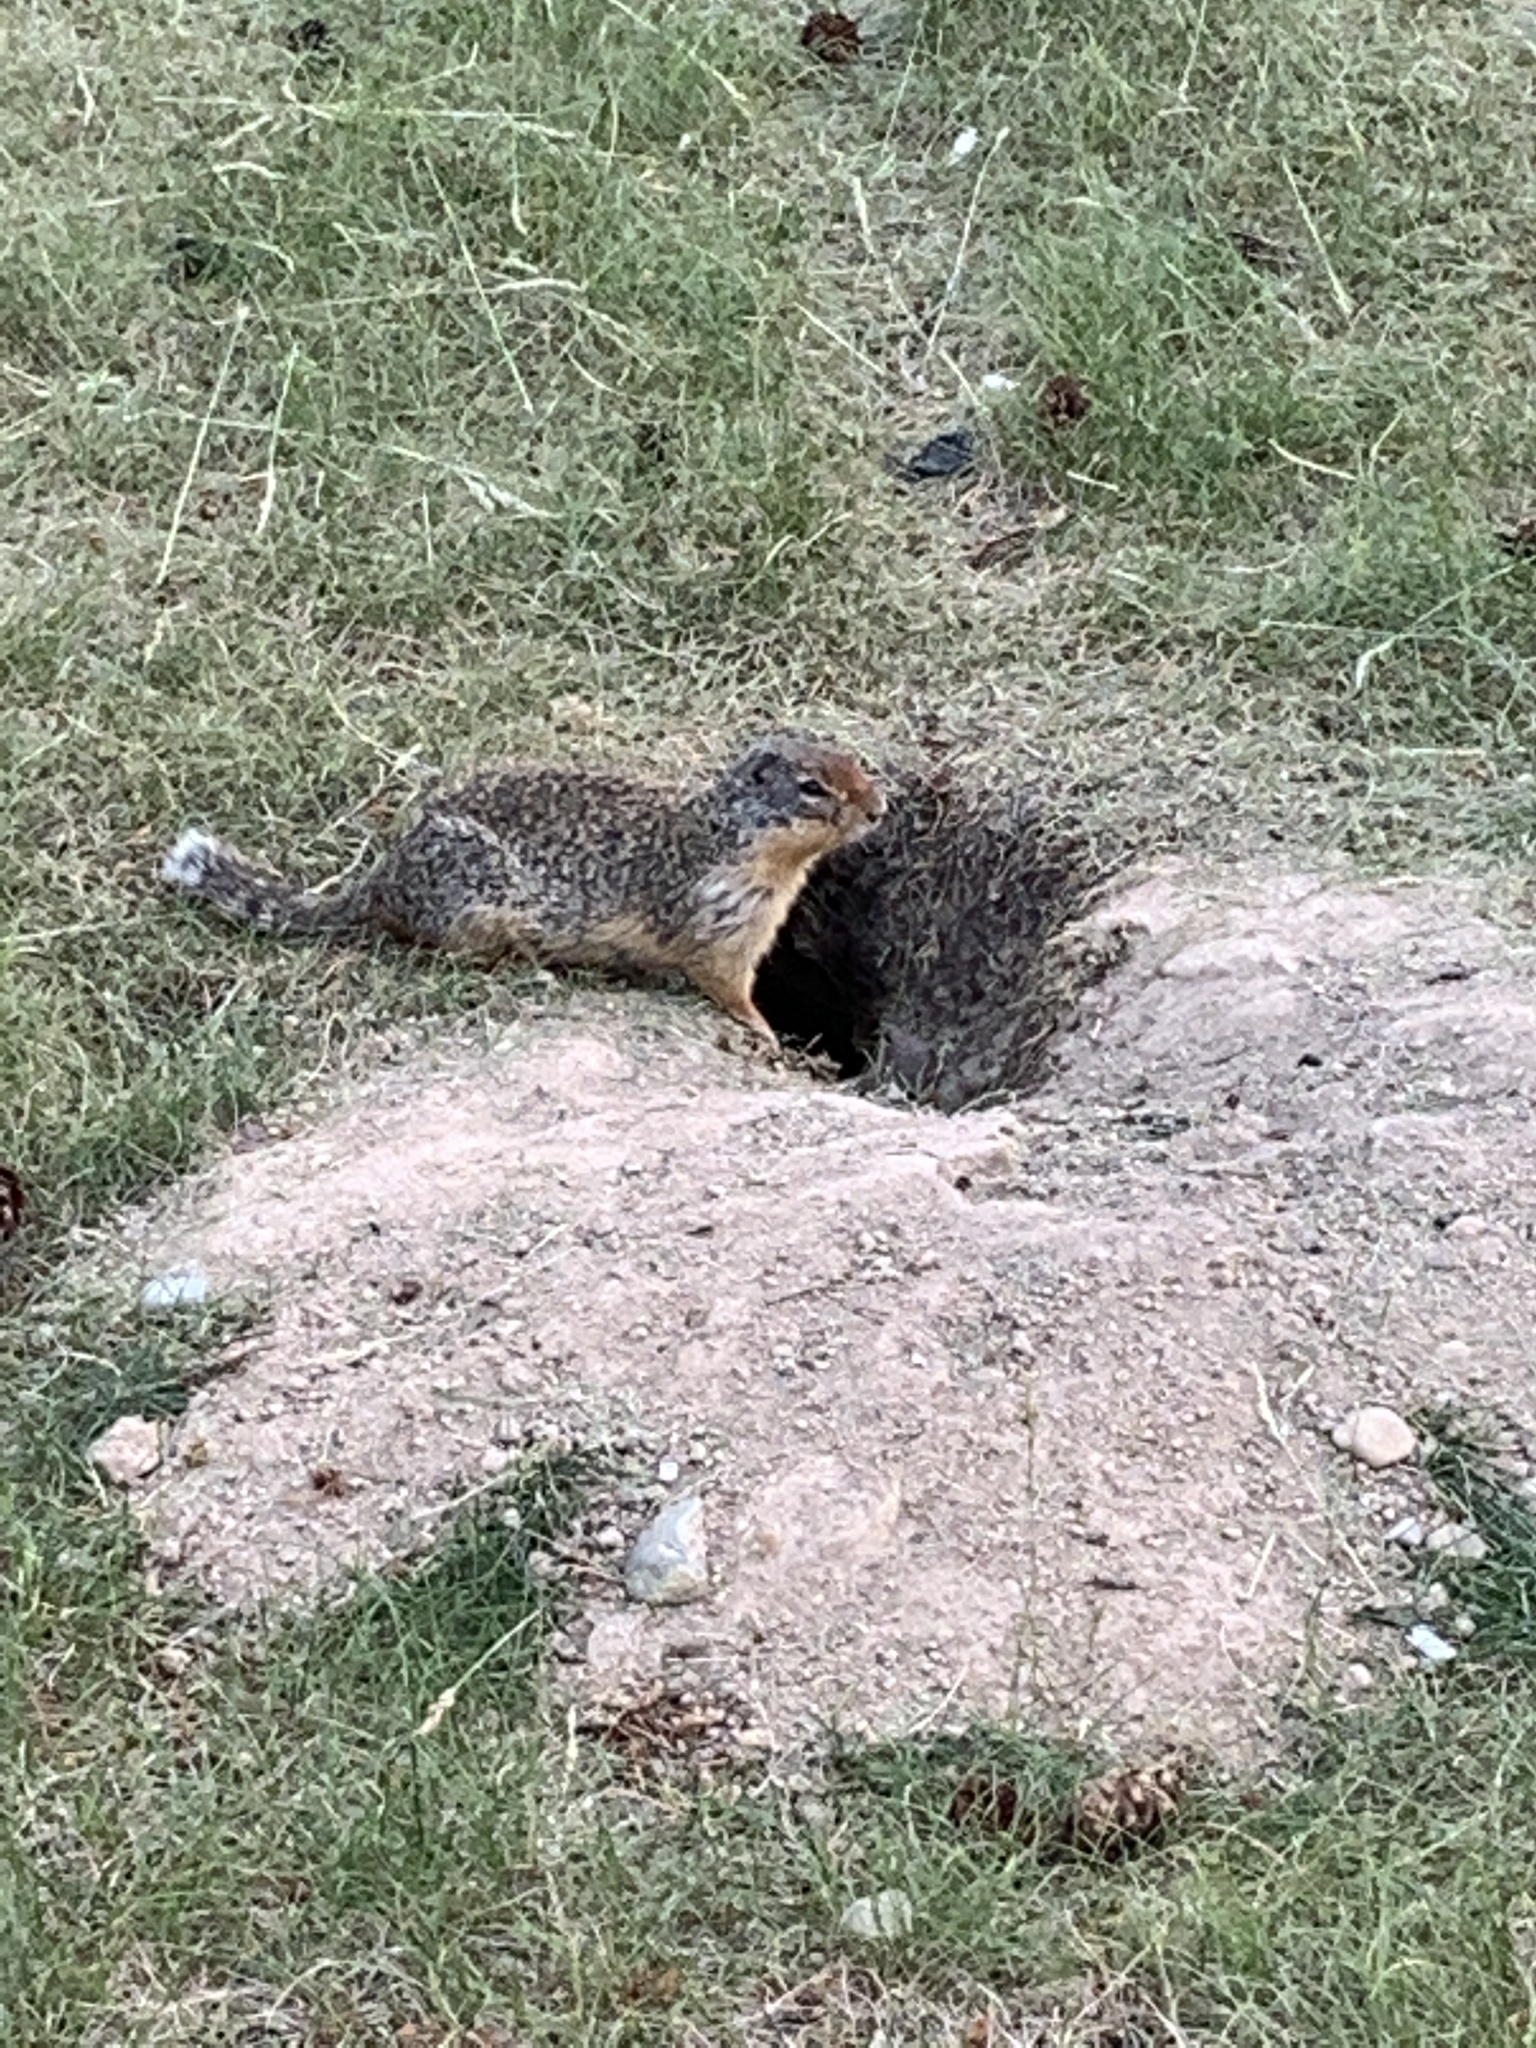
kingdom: Animalia
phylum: Chordata
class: Mammalia
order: Rodentia
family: Sciuridae
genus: Urocitellus
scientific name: Urocitellus columbianus
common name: Columbian ground squirrel
